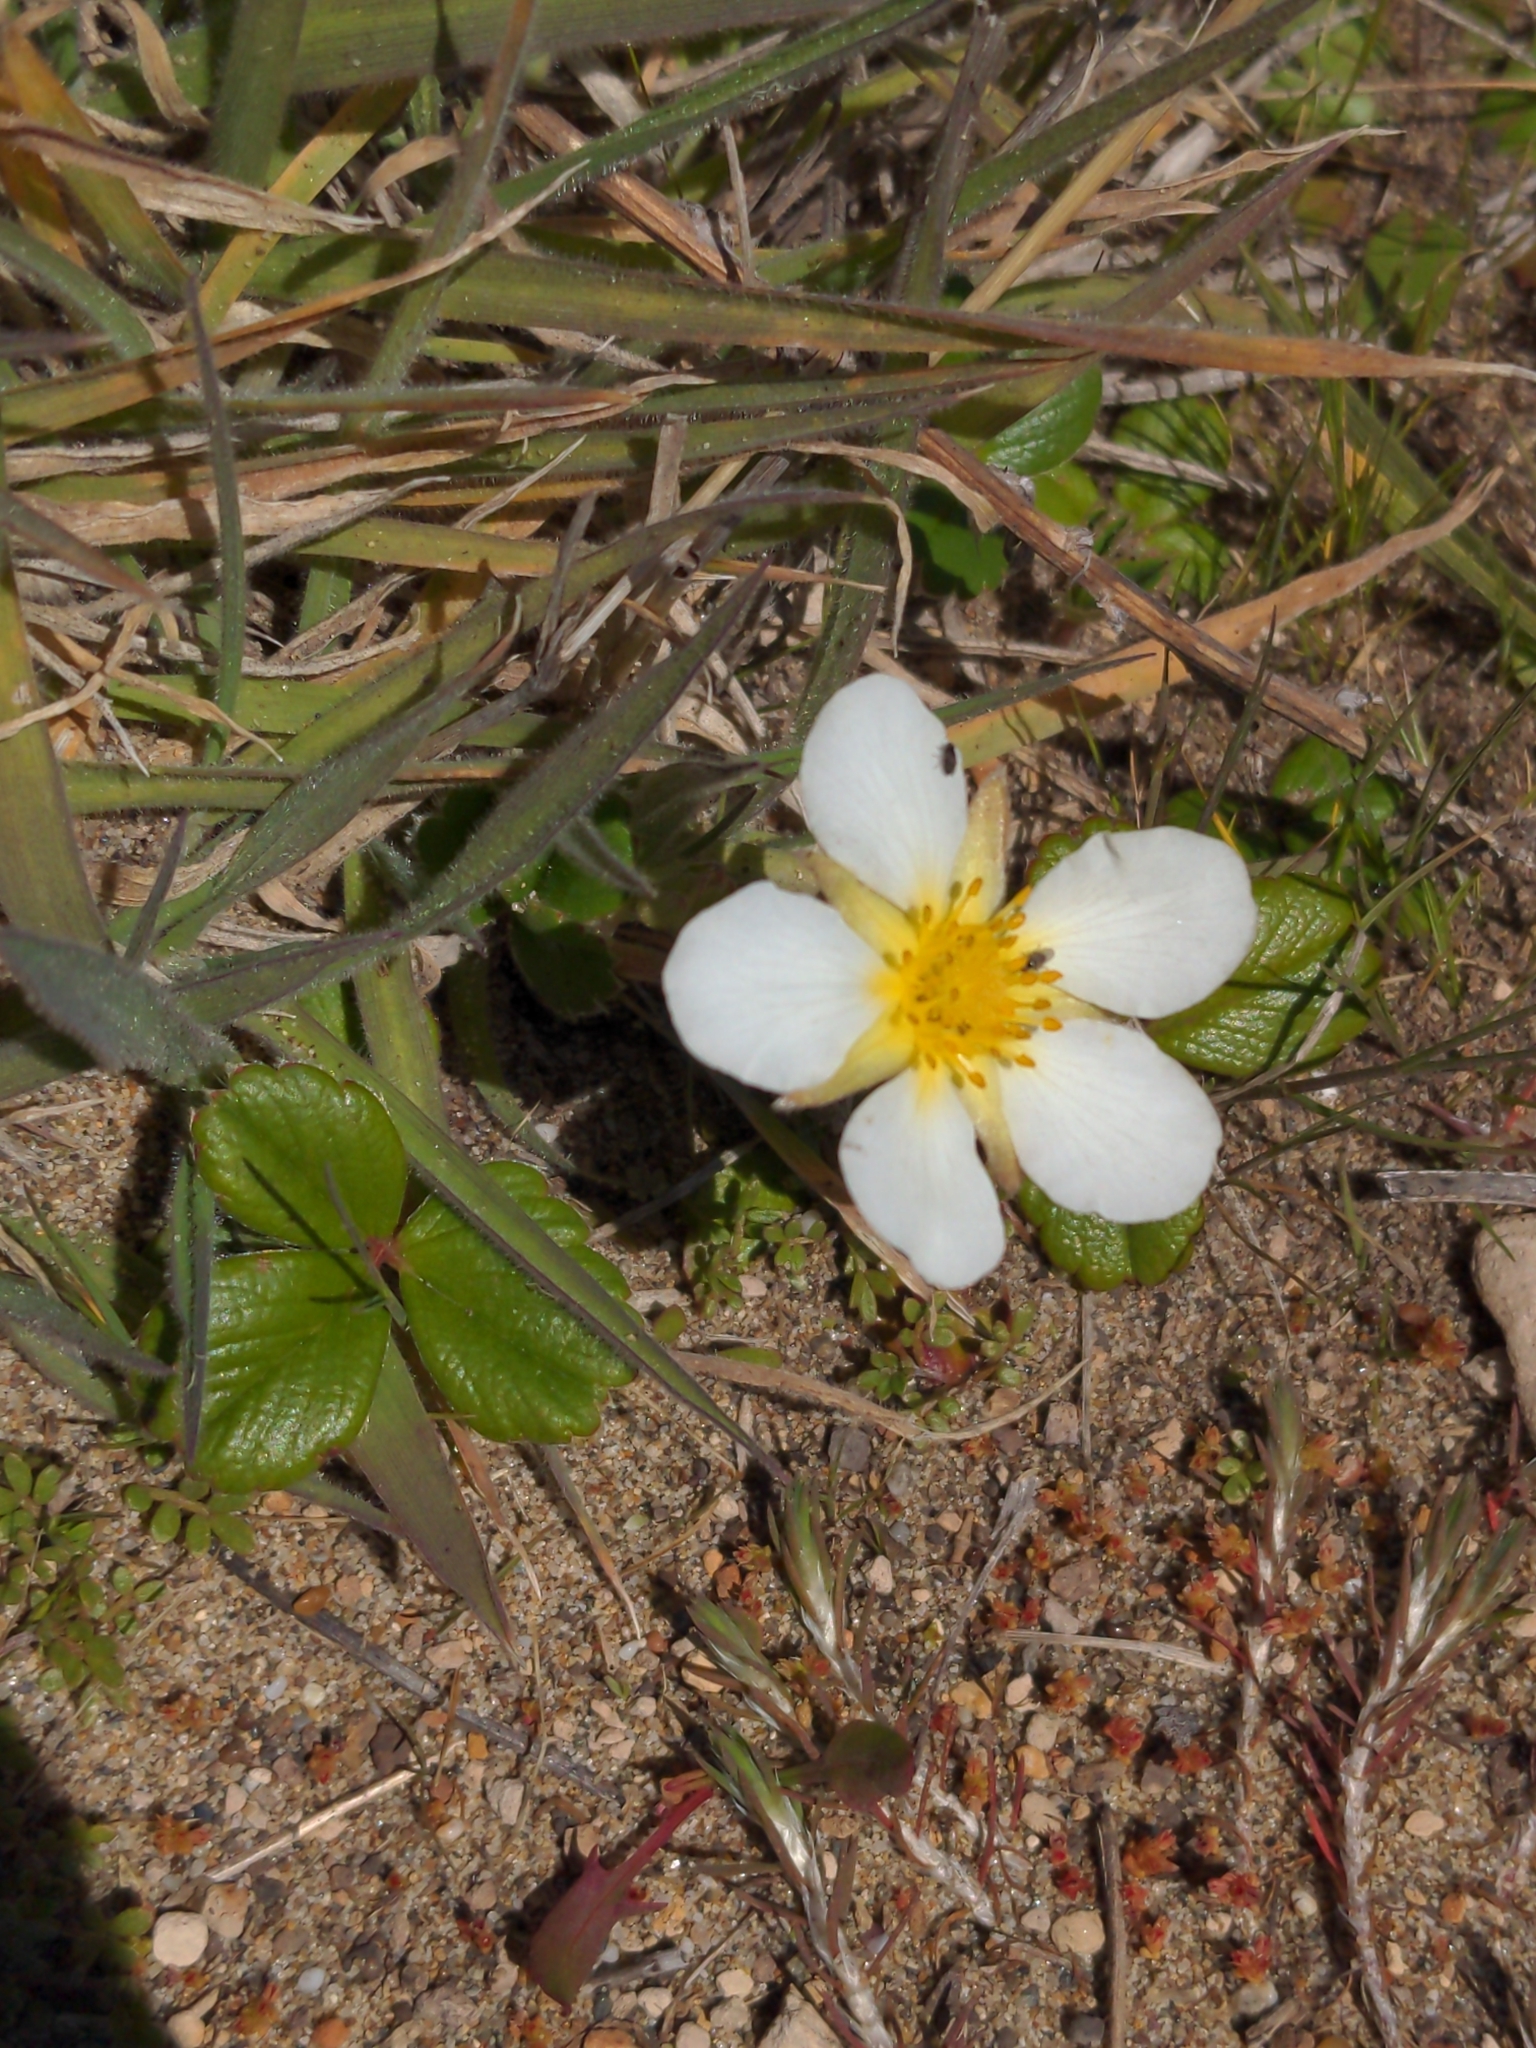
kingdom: Plantae
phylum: Tracheophyta
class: Magnoliopsida
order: Rosales
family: Rosaceae
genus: Fragaria
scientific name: Fragaria chiloensis
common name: Beach strawberry
